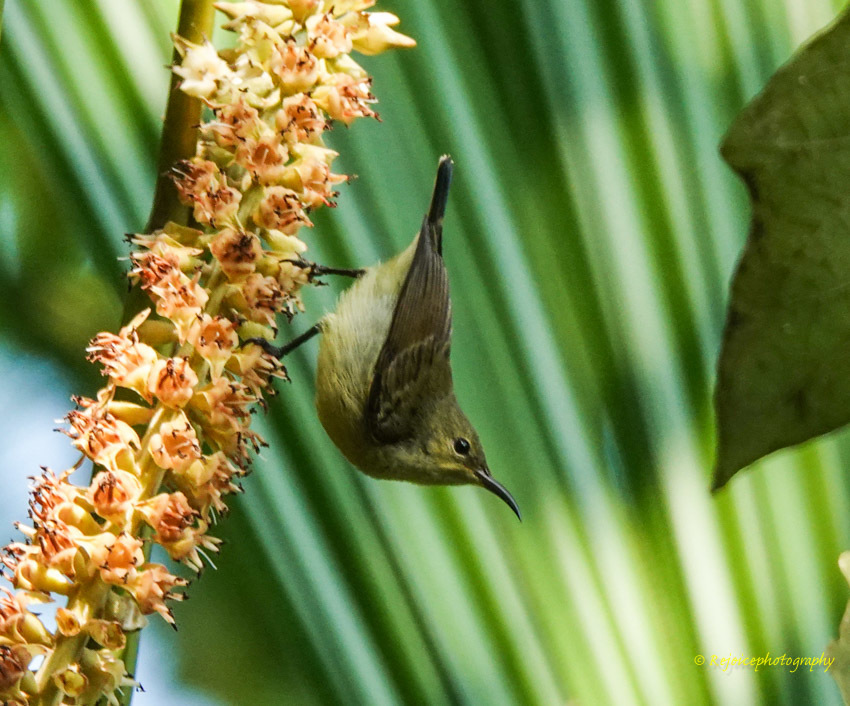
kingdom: Animalia
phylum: Chordata
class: Aves
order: Passeriformes
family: Nectariniidae
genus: Leptocoma
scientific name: Leptocoma brasiliana
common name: Van hasselt's sunbird
